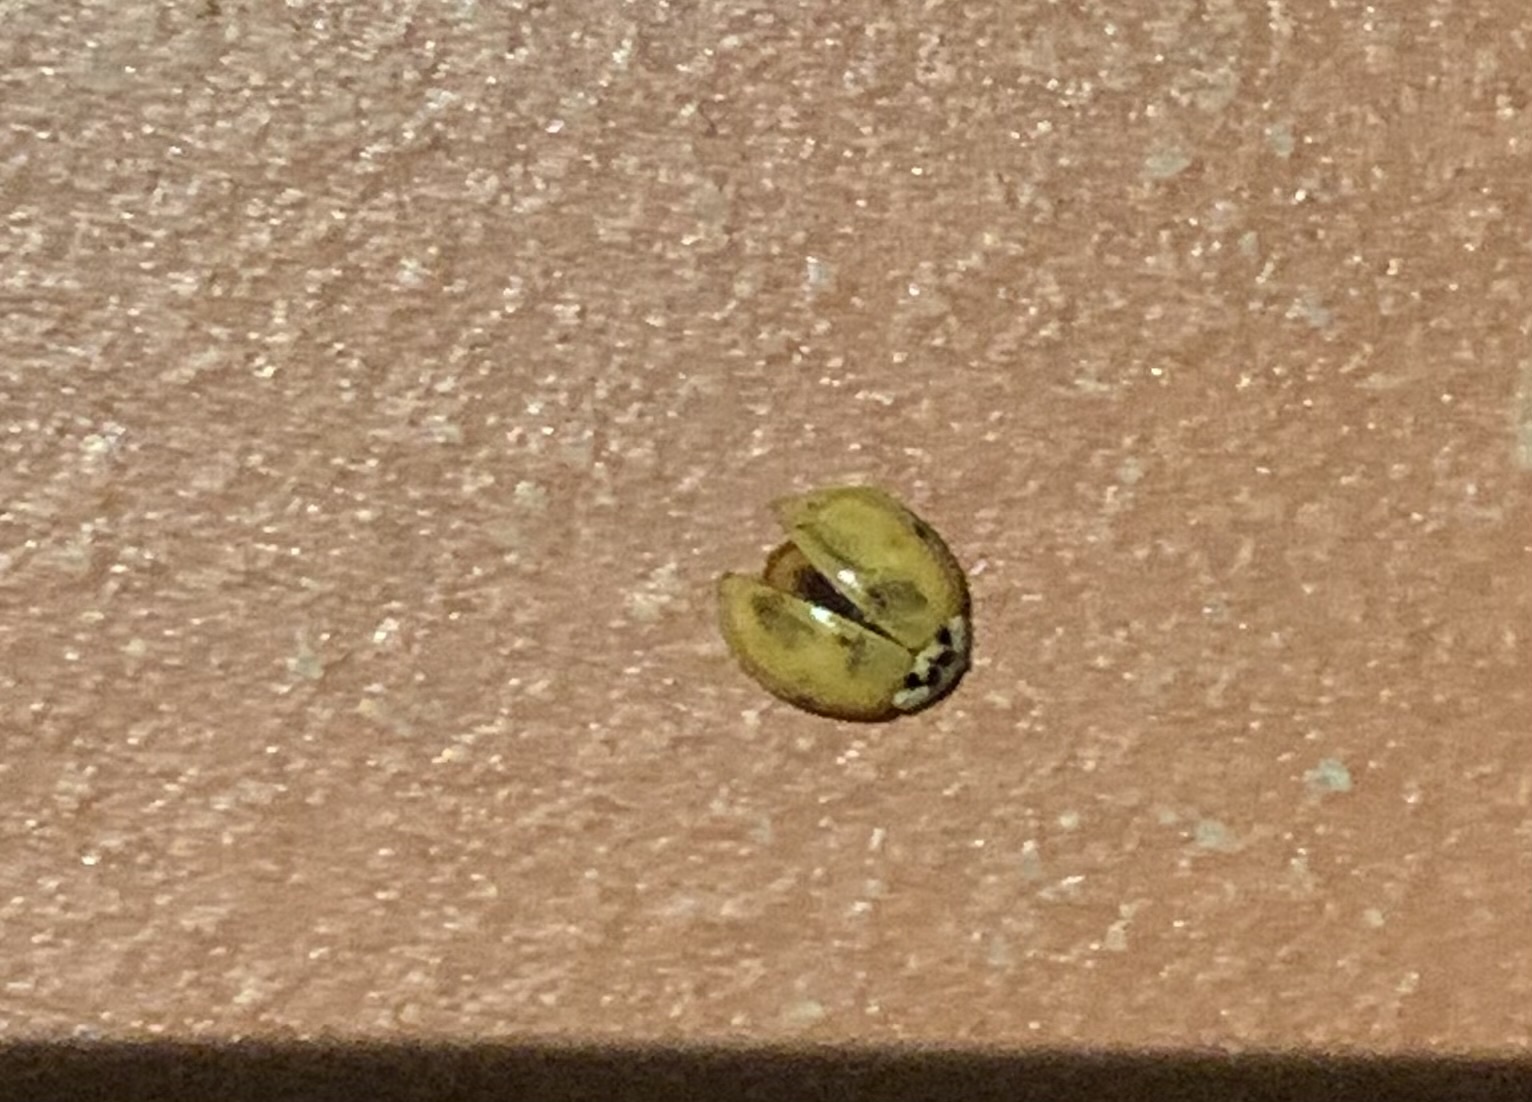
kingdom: Animalia
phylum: Arthropoda
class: Insecta
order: Coleoptera
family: Coccinellidae
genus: Harmonia
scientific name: Harmonia axyridis
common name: Harlequin ladybird
